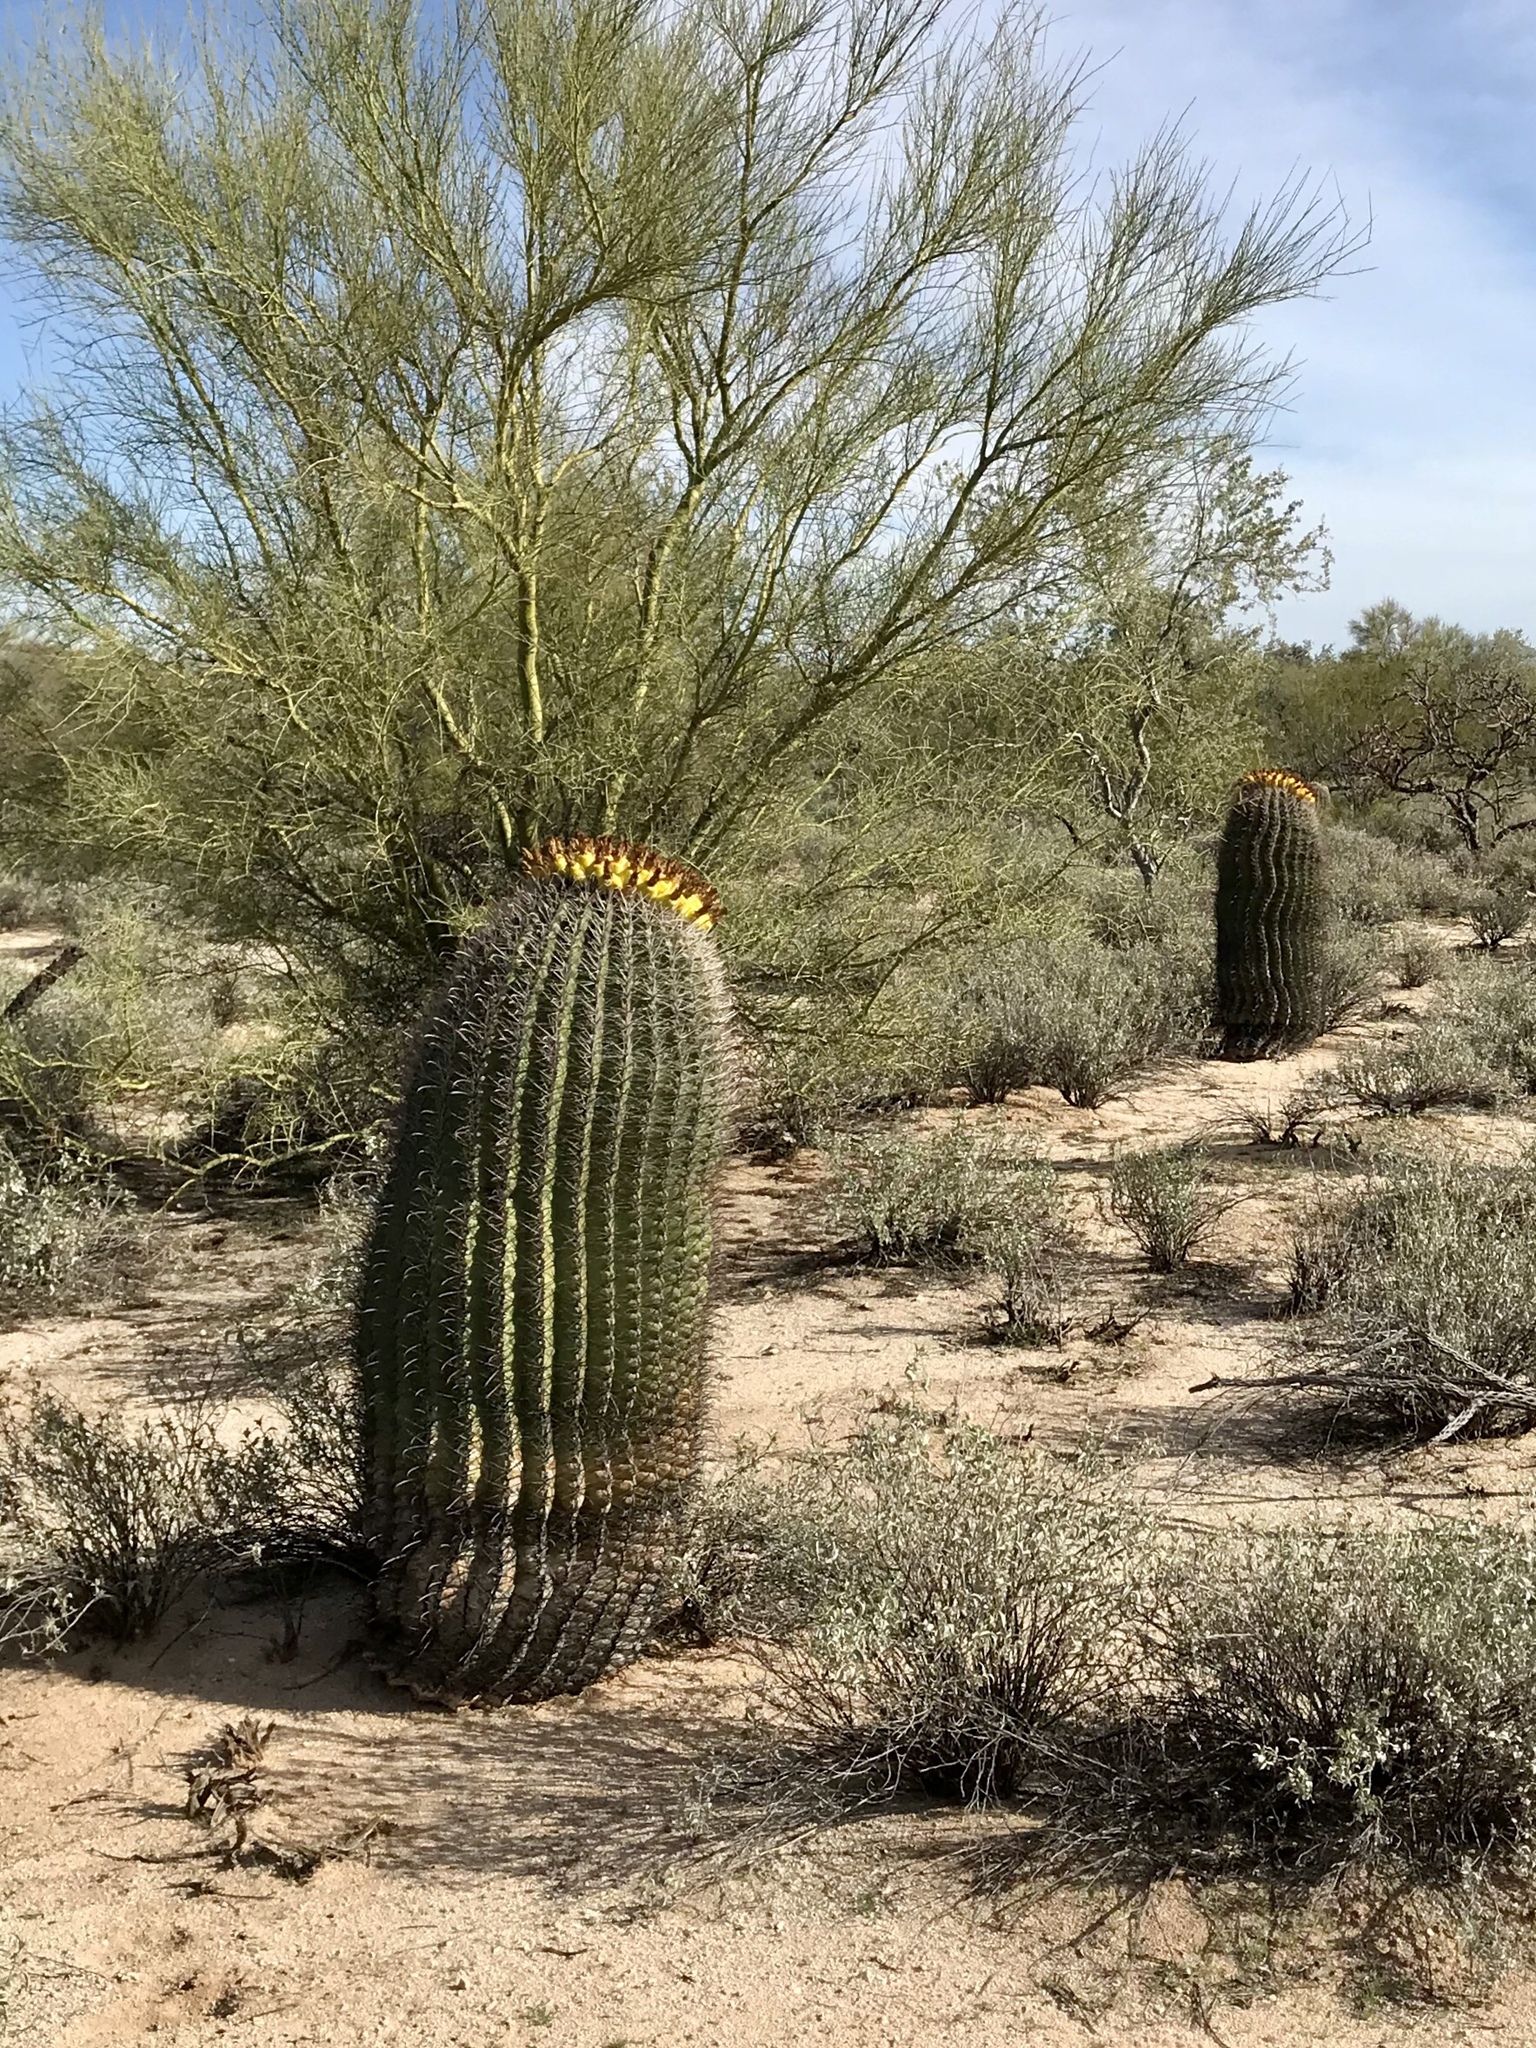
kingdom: Plantae
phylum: Tracheophyta
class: Magnoliopsida
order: Caryophyllales
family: Cactaceae
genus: Ferocactus
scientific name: Ferocactus wislizeni
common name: Candy barrel cactus
